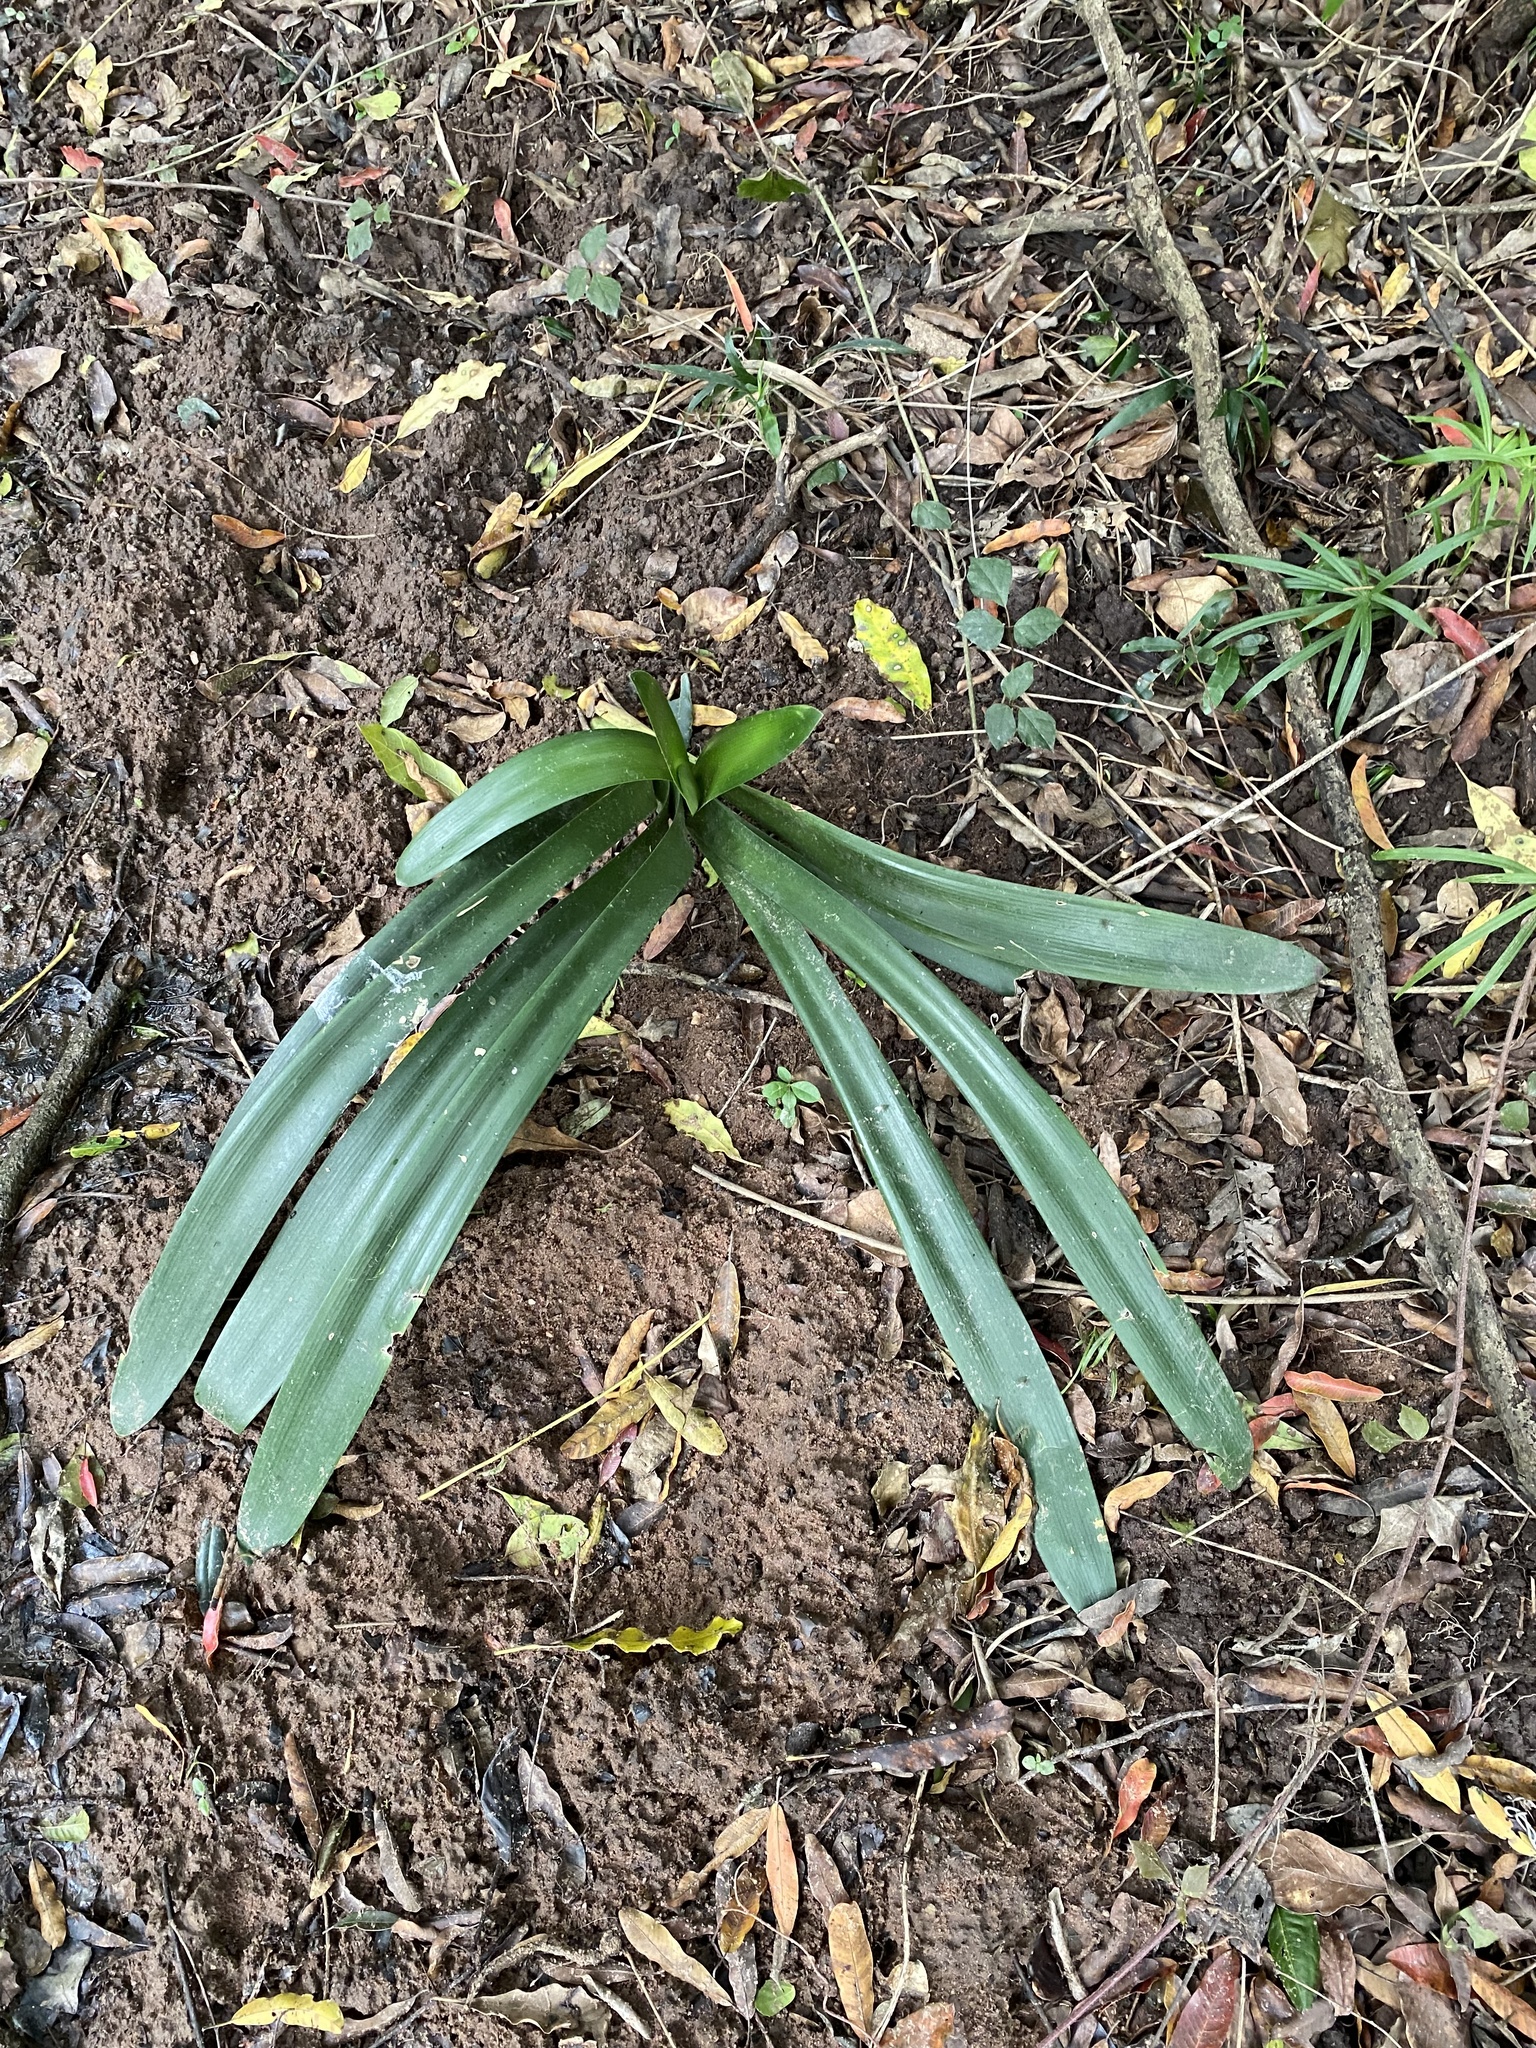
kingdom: Plantae
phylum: Tracheophyta
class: Liliopsida
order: Asparagales
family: Amaryllidaceae
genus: Clivia
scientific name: Clivia miniata
